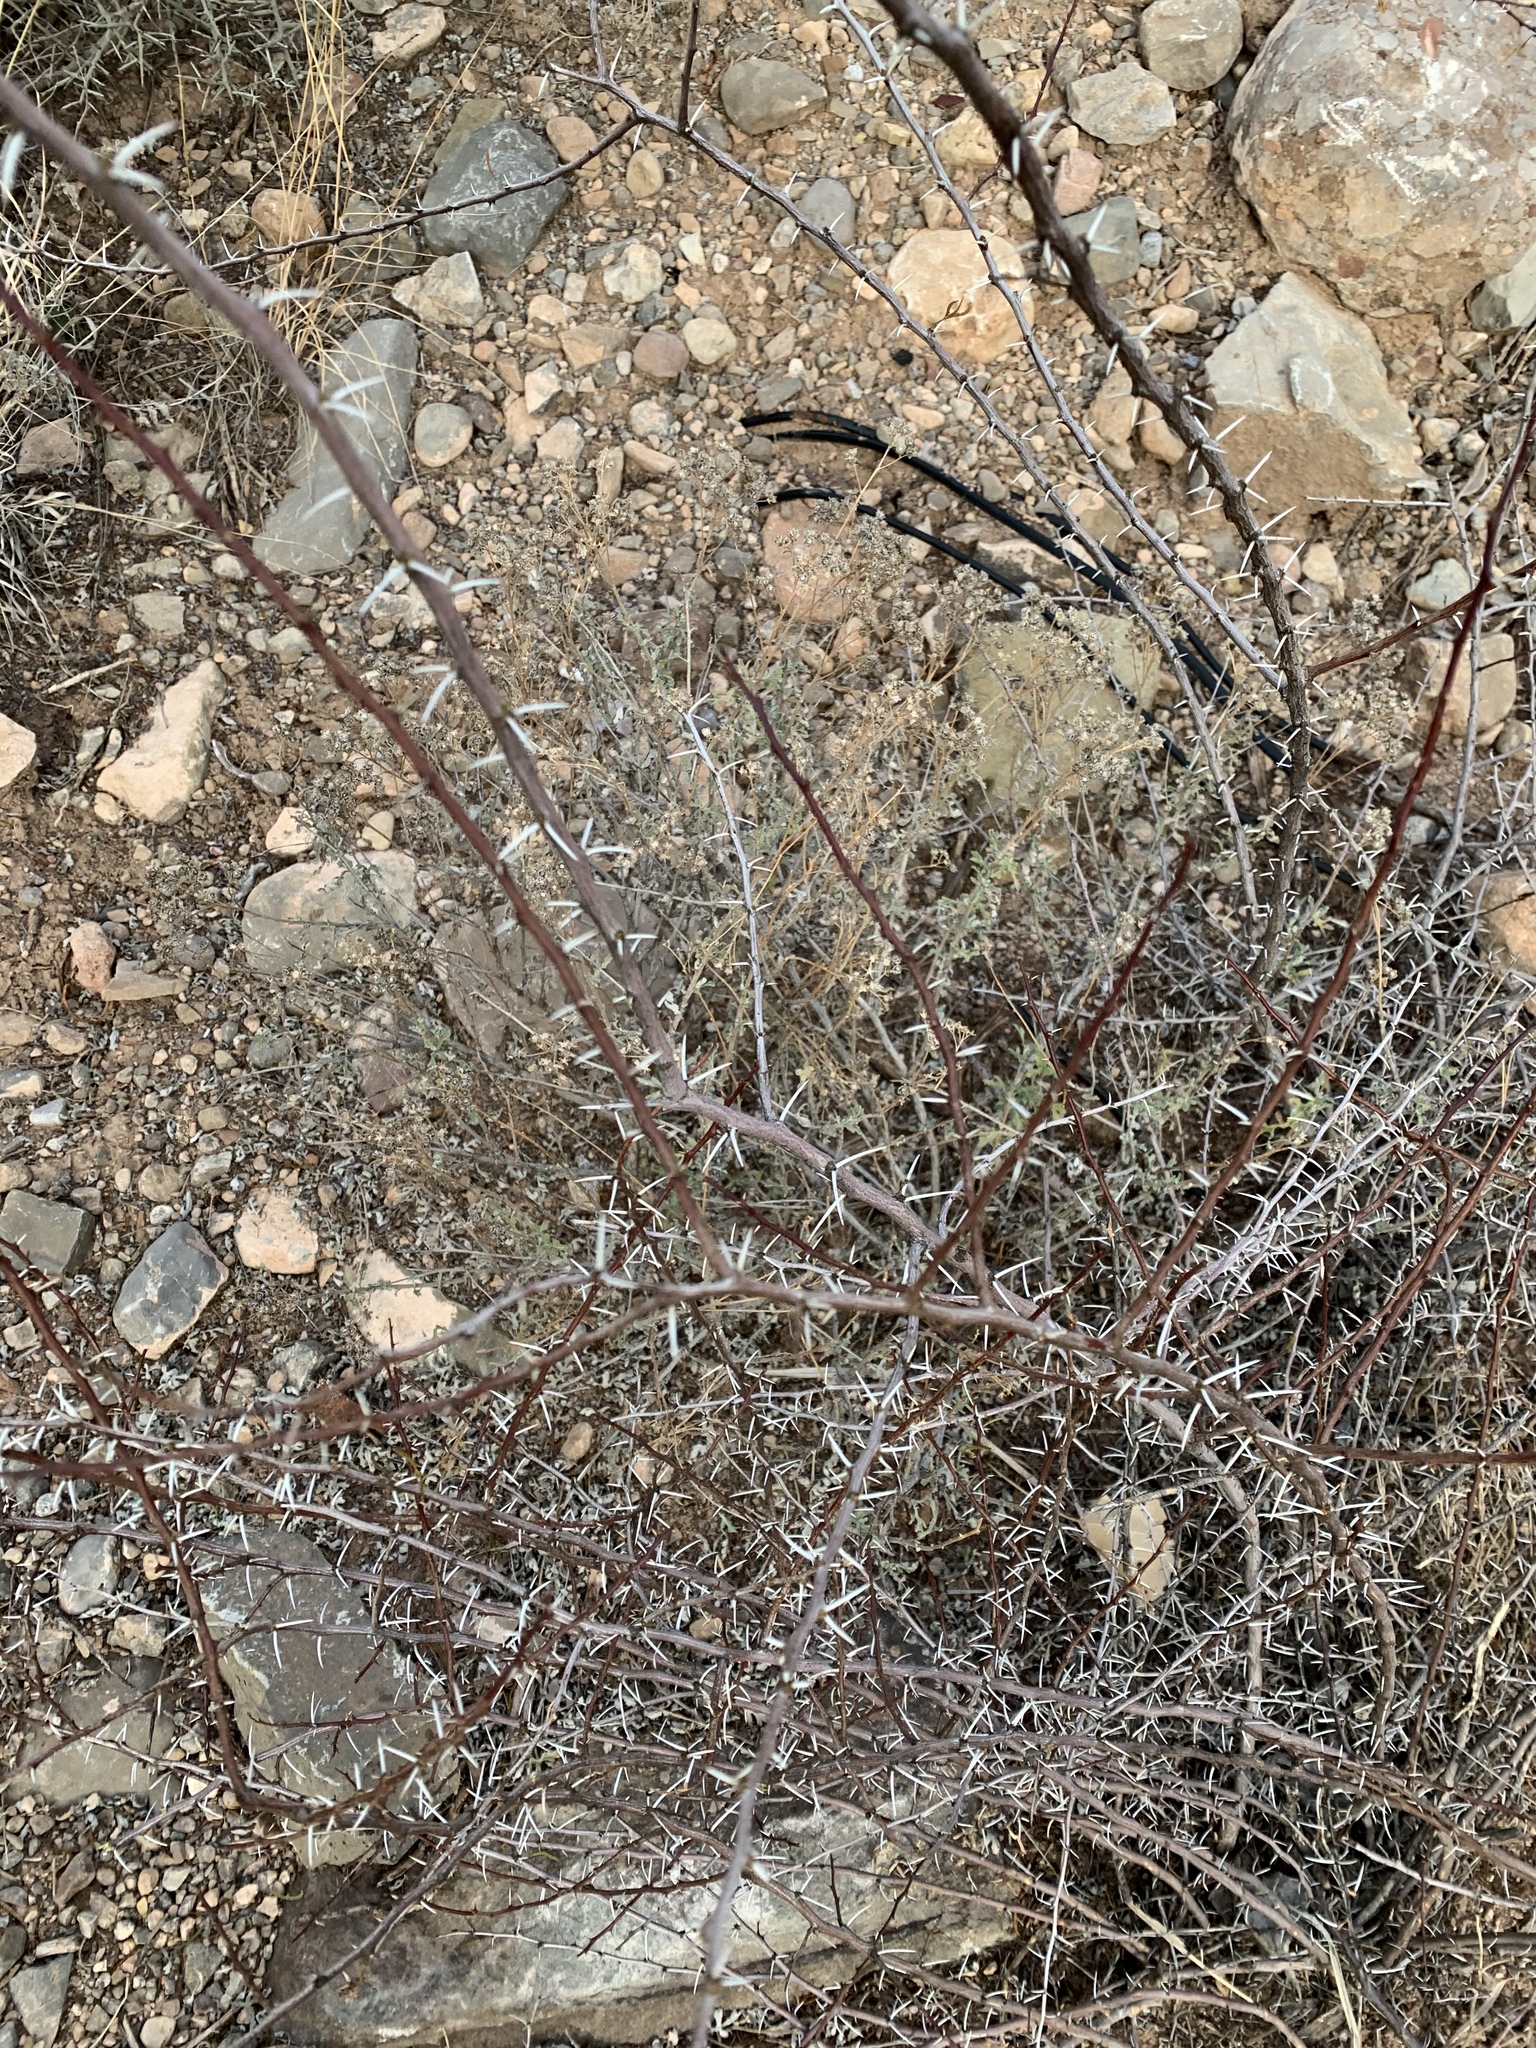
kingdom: Plantae
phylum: Tracheophyta
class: Magnoliopsida
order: Fabales
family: Fabaceae
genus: Vachellia
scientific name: Vachellia constricta
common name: Mescat acacia
